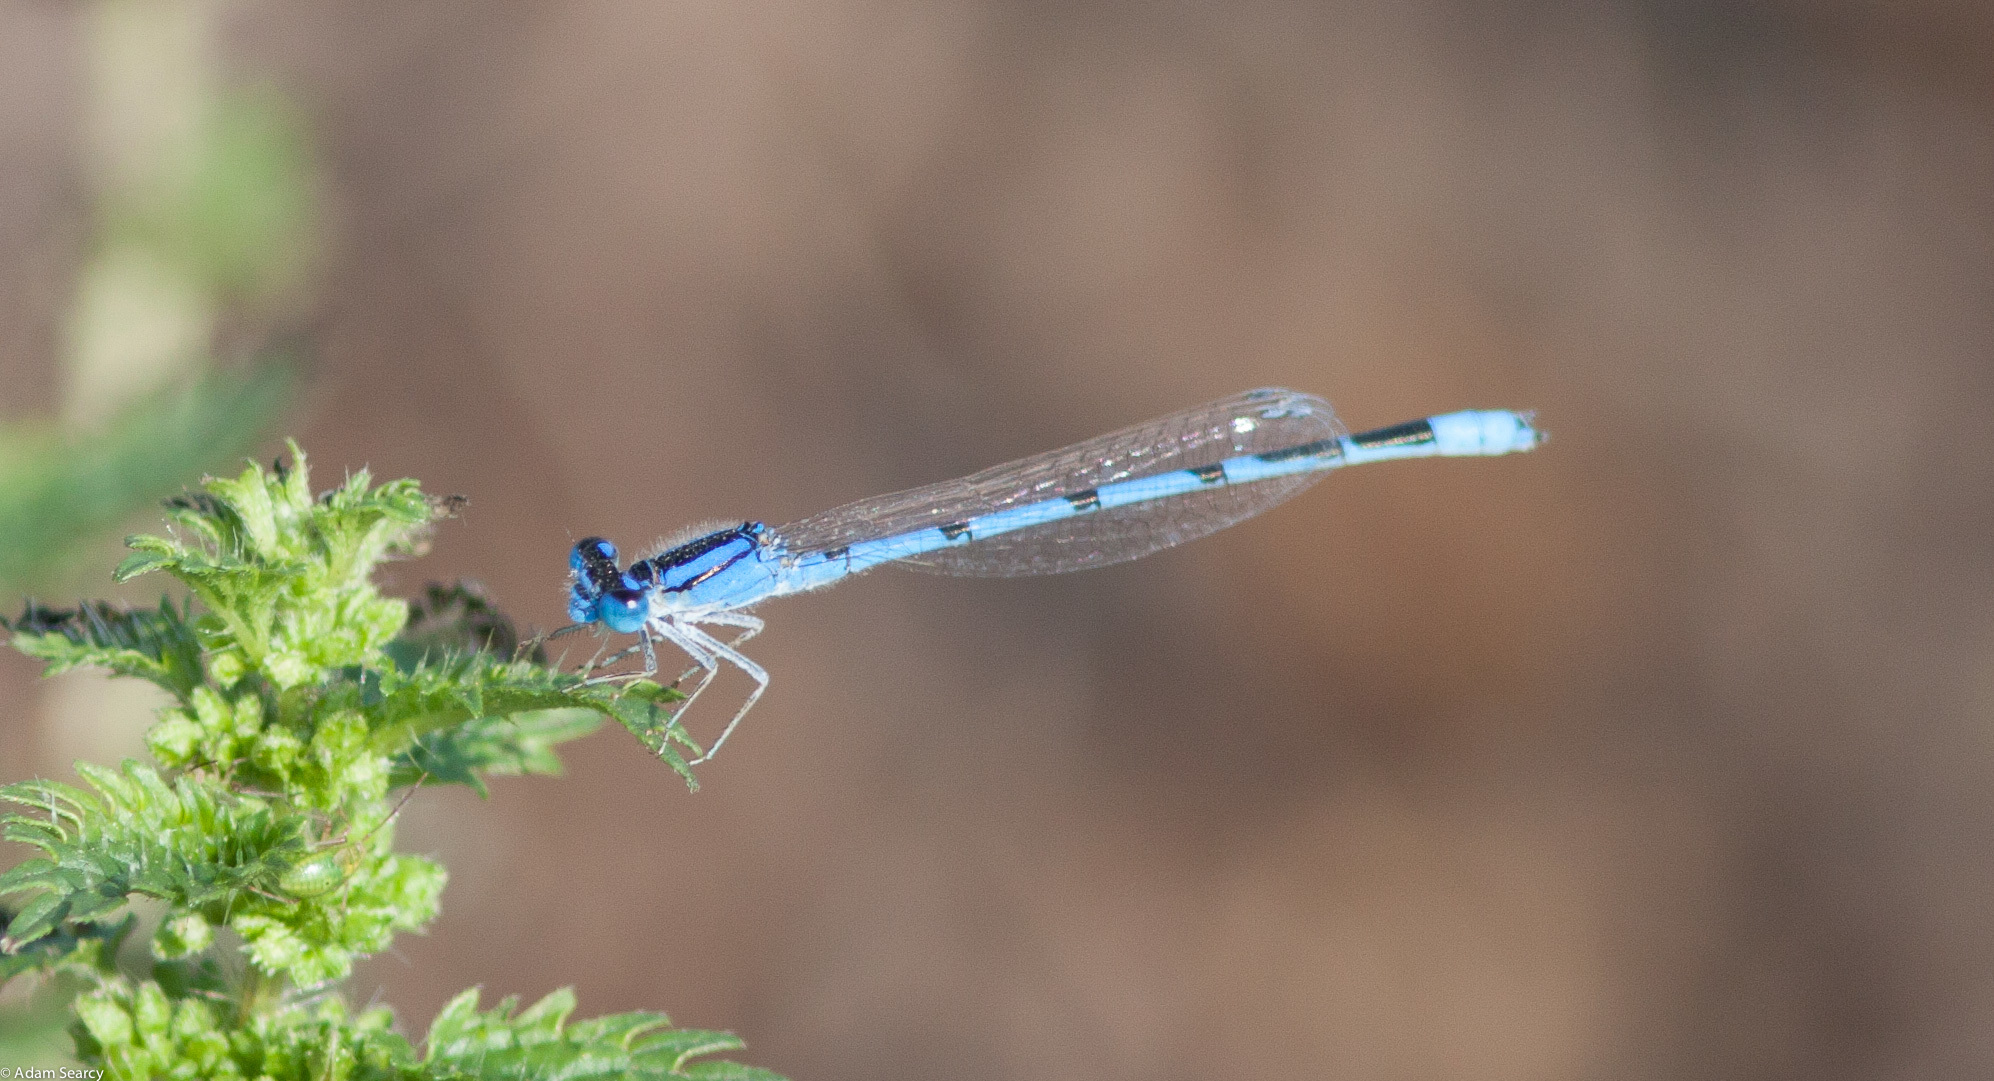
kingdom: Animalia
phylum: Arthropoda
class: Insecta
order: Odonata
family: Coenagrionidae
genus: Enallagma
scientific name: Enallagma civile
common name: Damselfly
